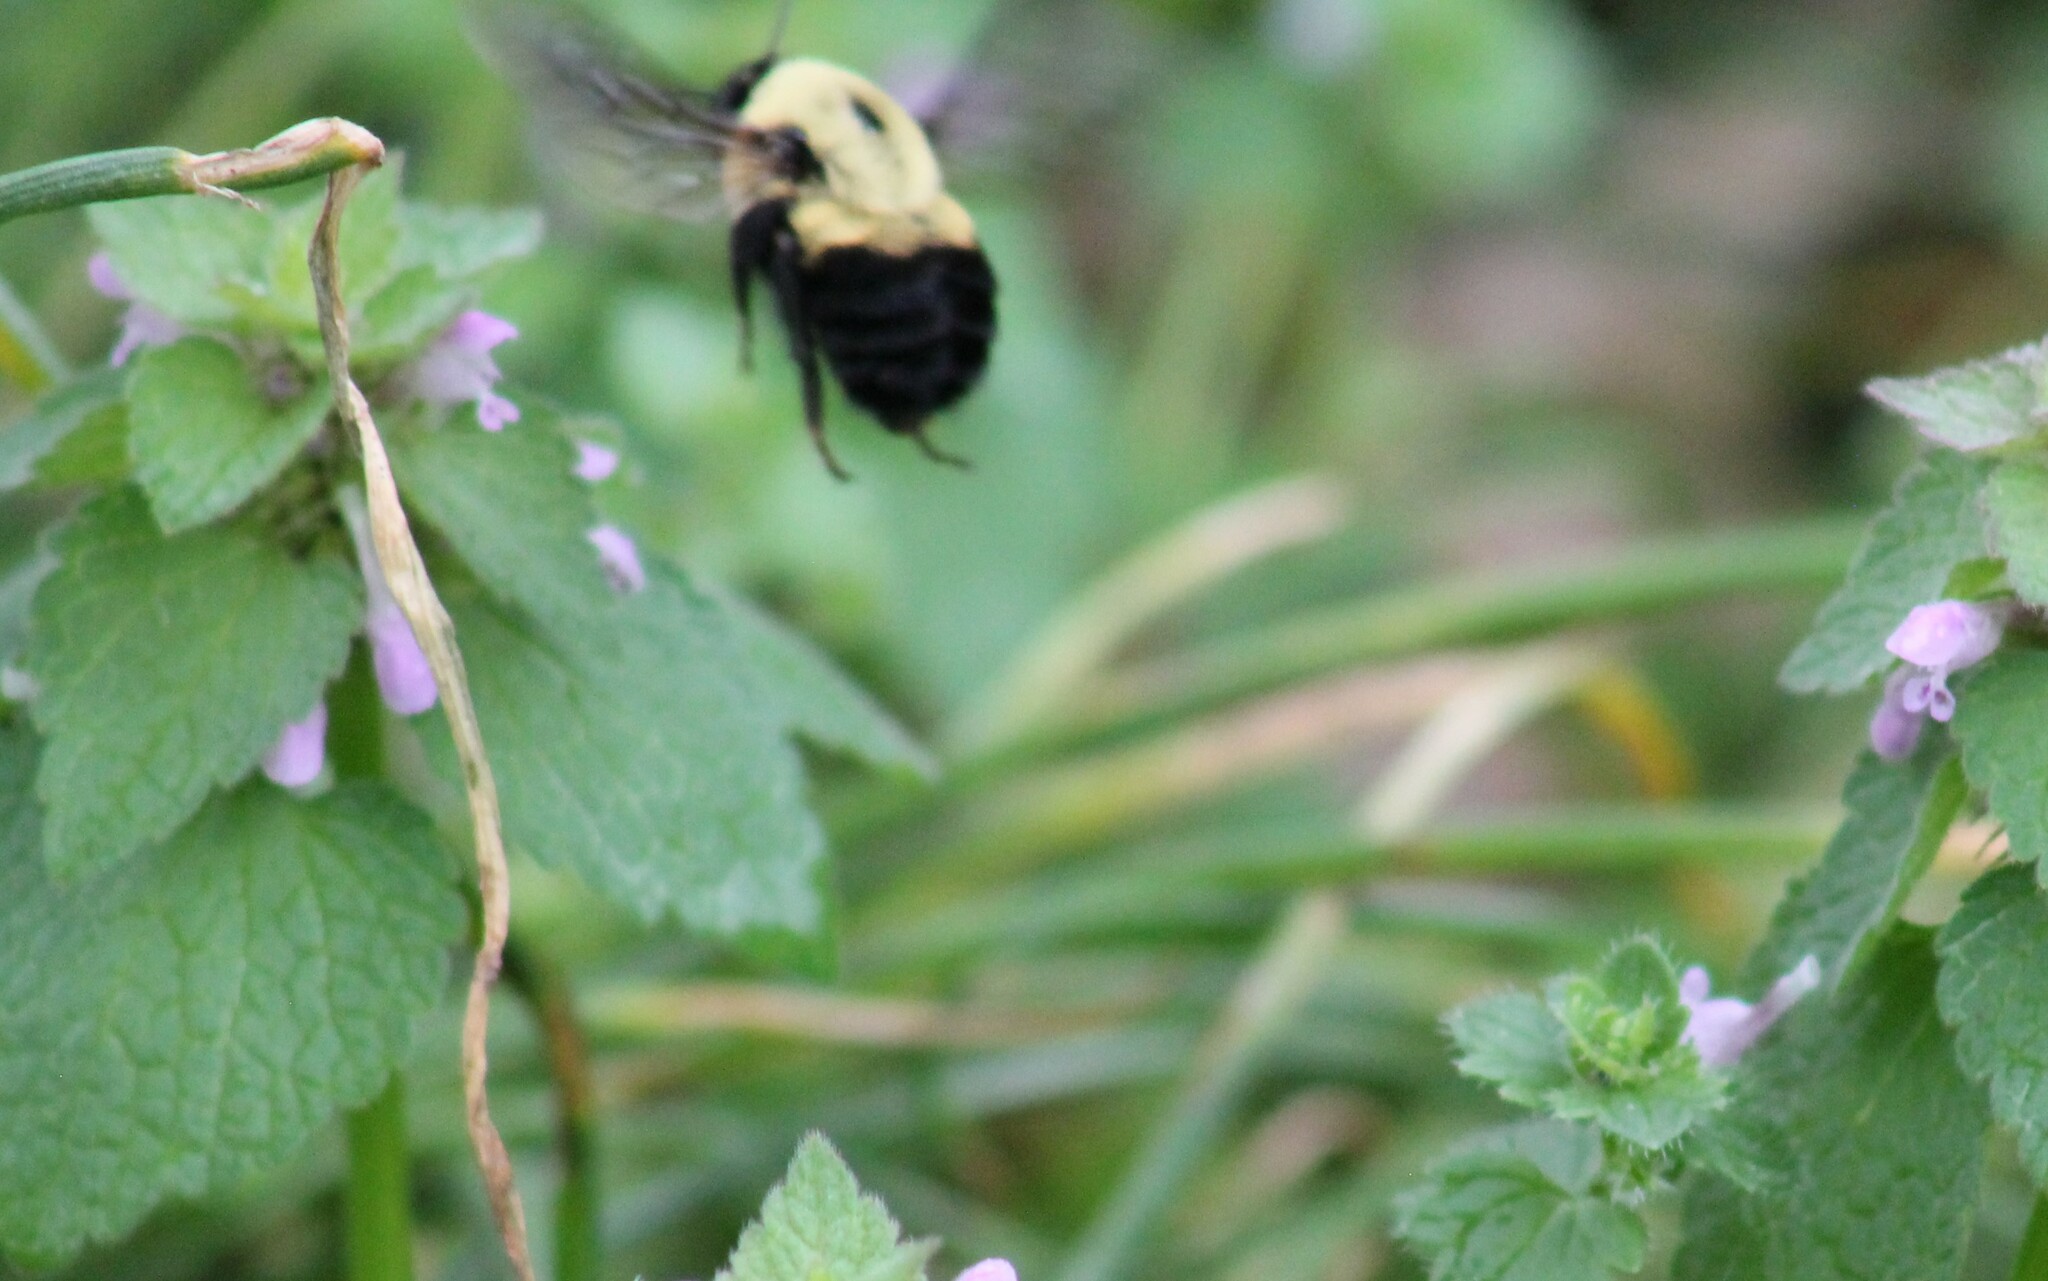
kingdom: Animalia
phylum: Arthropoda
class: Insecta
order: Hymenoptera
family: Apidae
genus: Bombus
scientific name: Bombus griseocollis
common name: Brown-belted bumble bee
